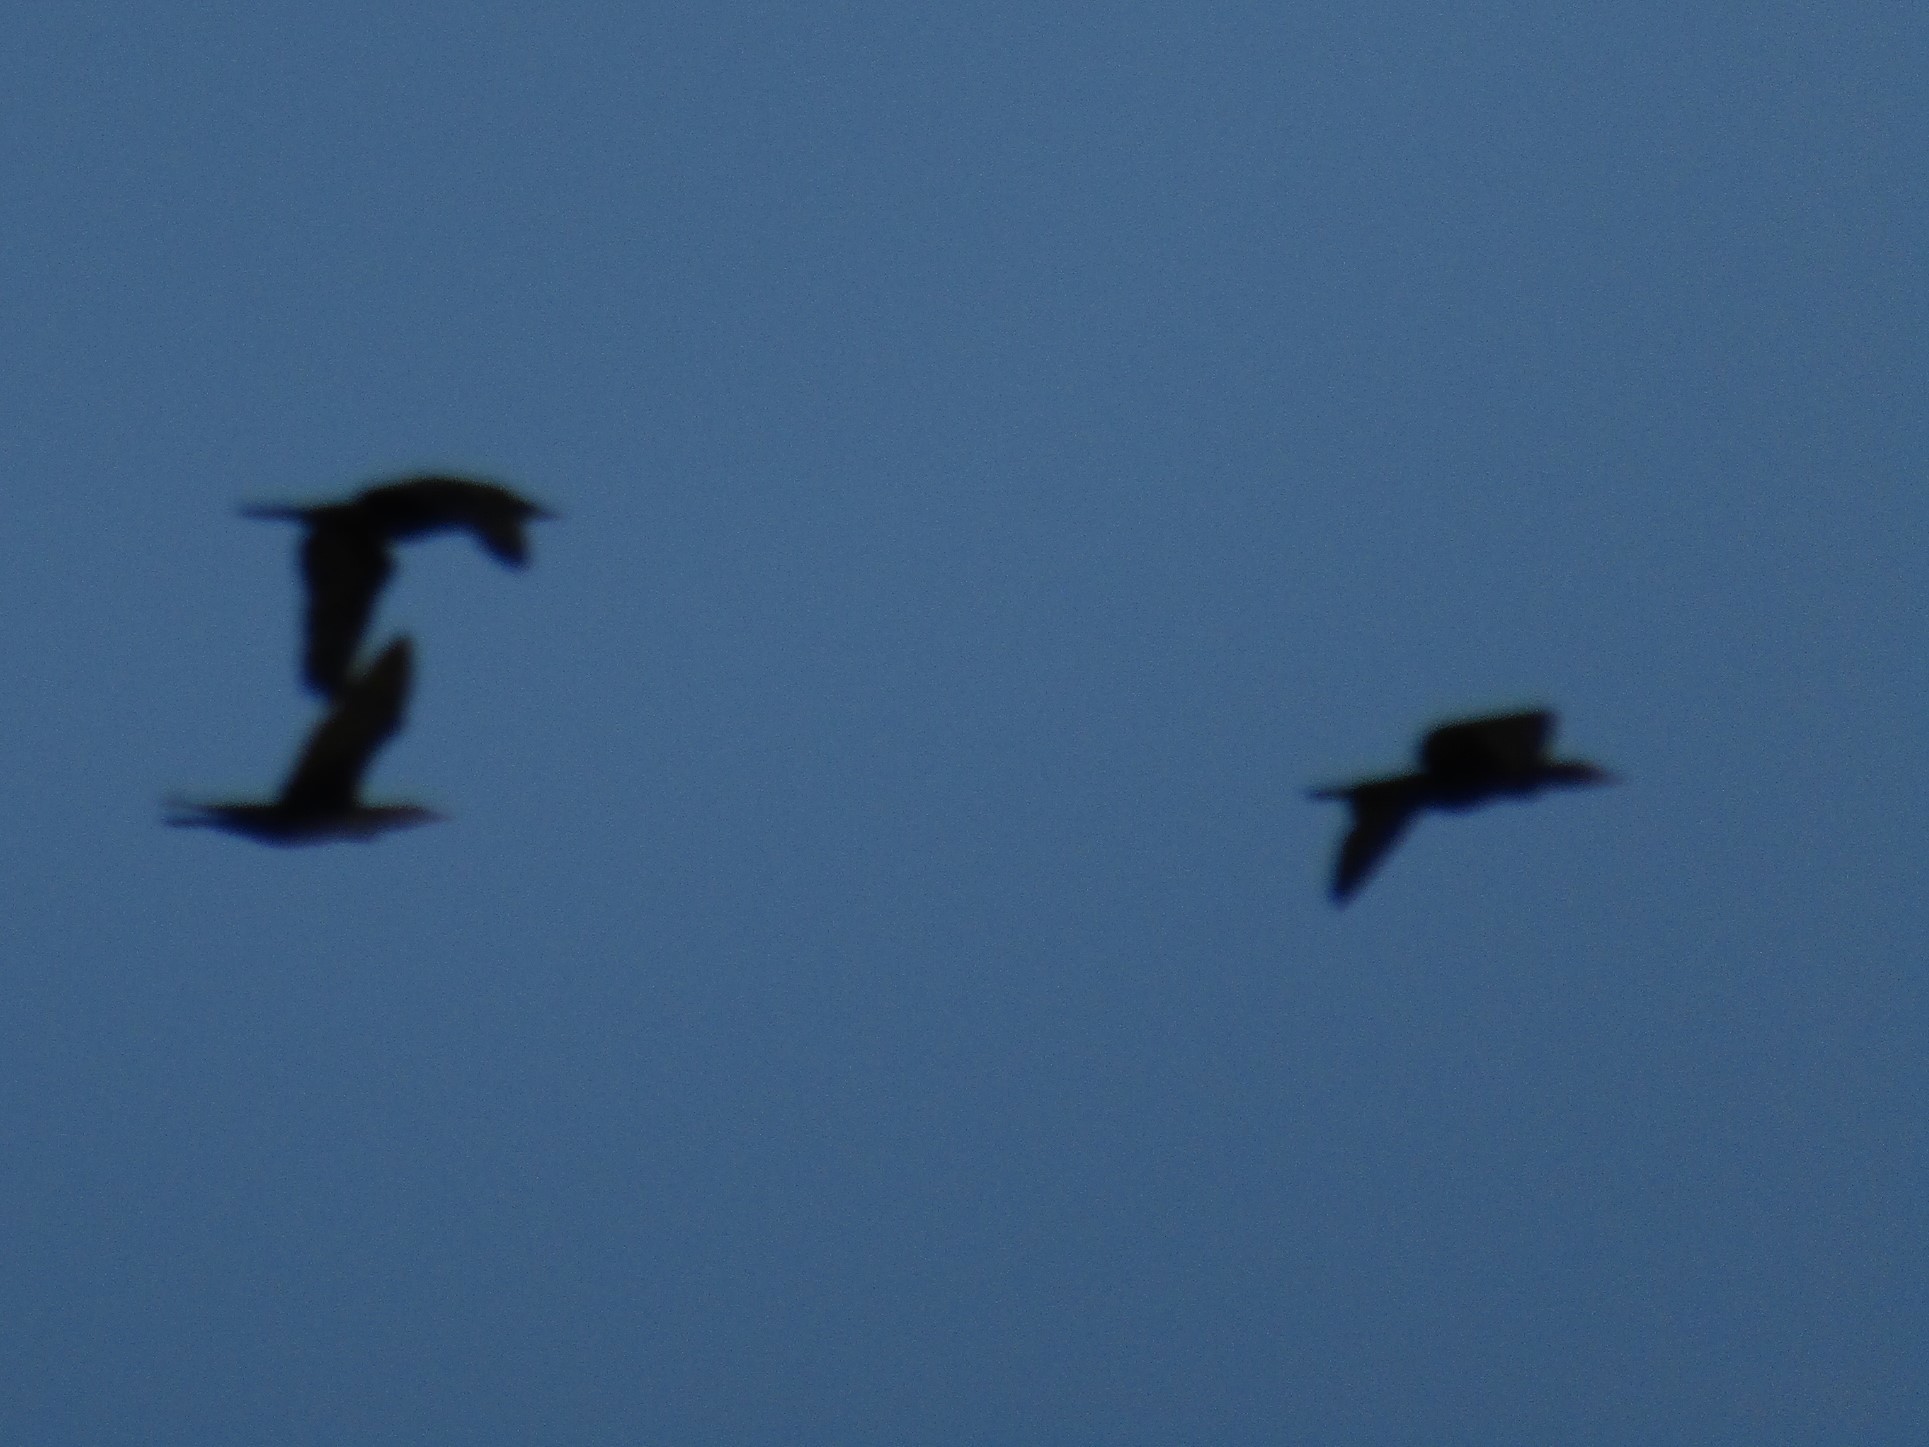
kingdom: Animalia
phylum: Chordata
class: Aves
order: Suliformes
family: Phalacrocoracidae
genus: Phalacrocorax
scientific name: Phalacrocorax brasilianus
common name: Neotropic cormorant
